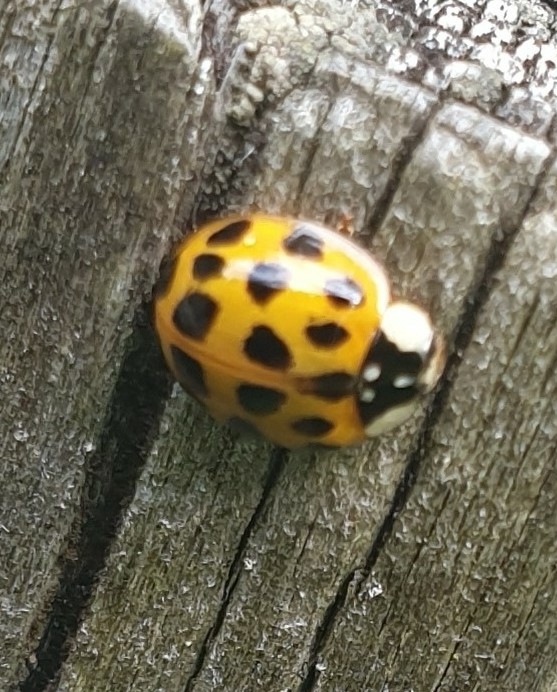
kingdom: Animalia
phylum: Arthropoda
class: Insecta
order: Coleoptera
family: Coccinellidae
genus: Harmonia
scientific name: Harmonia axyridis
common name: Harlequin ladybird
